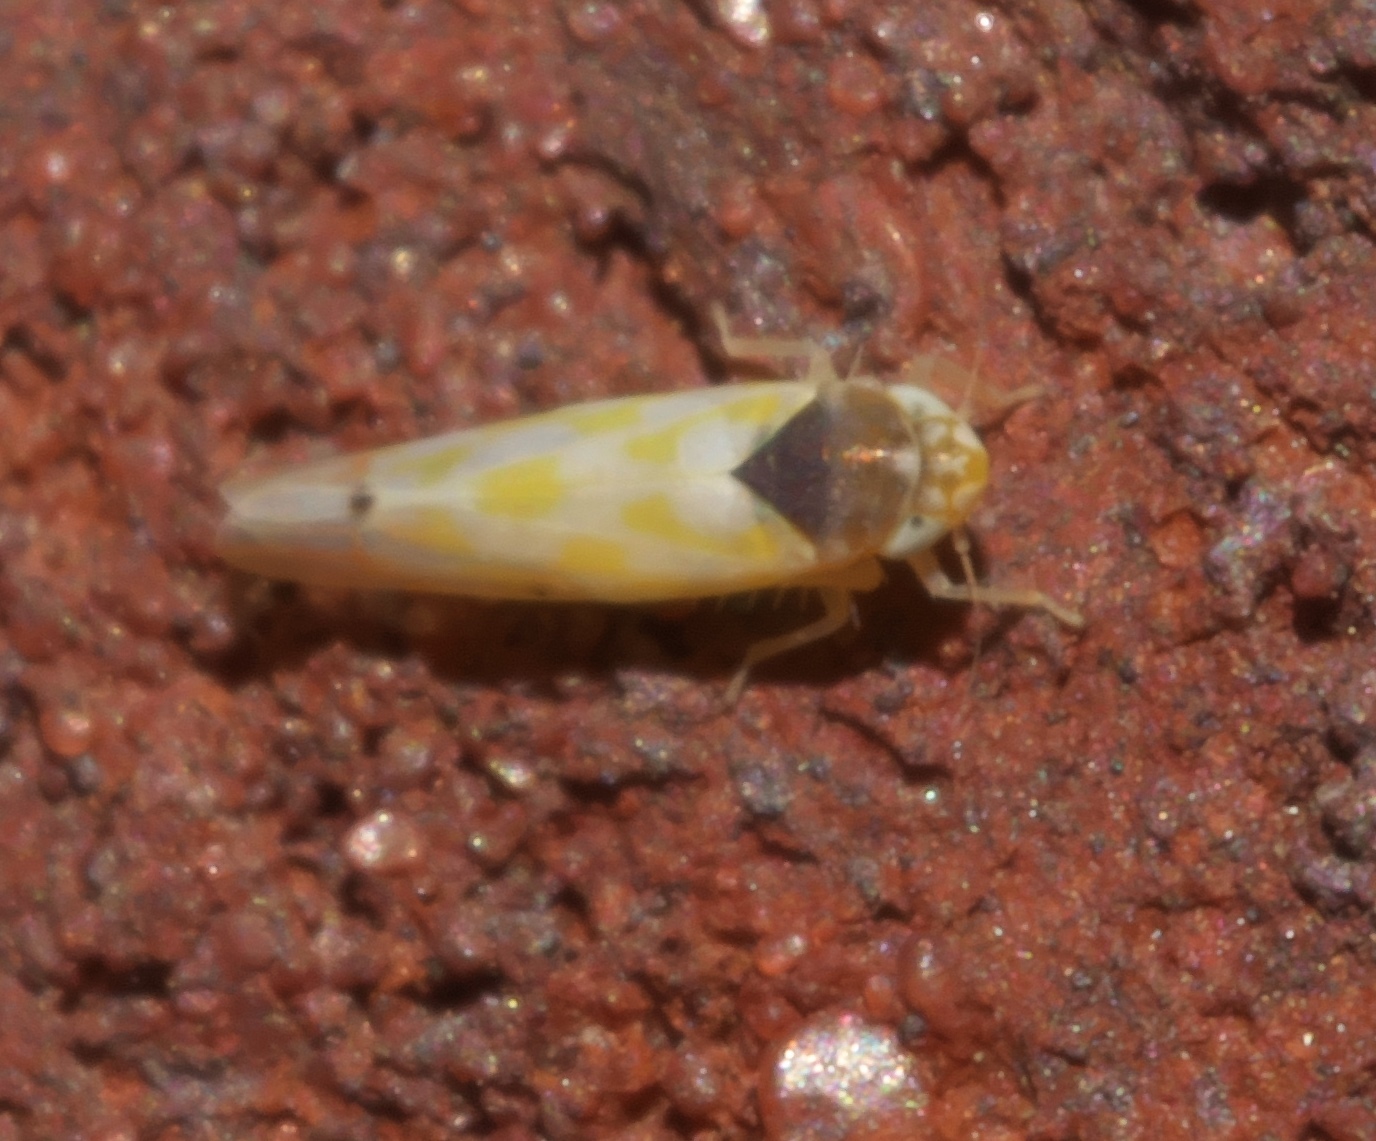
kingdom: Animalia
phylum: Arthropoda
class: Insecta
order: Hemiptera
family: Cicadellidae
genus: Eratoneura
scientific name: Eratoneura ardens
